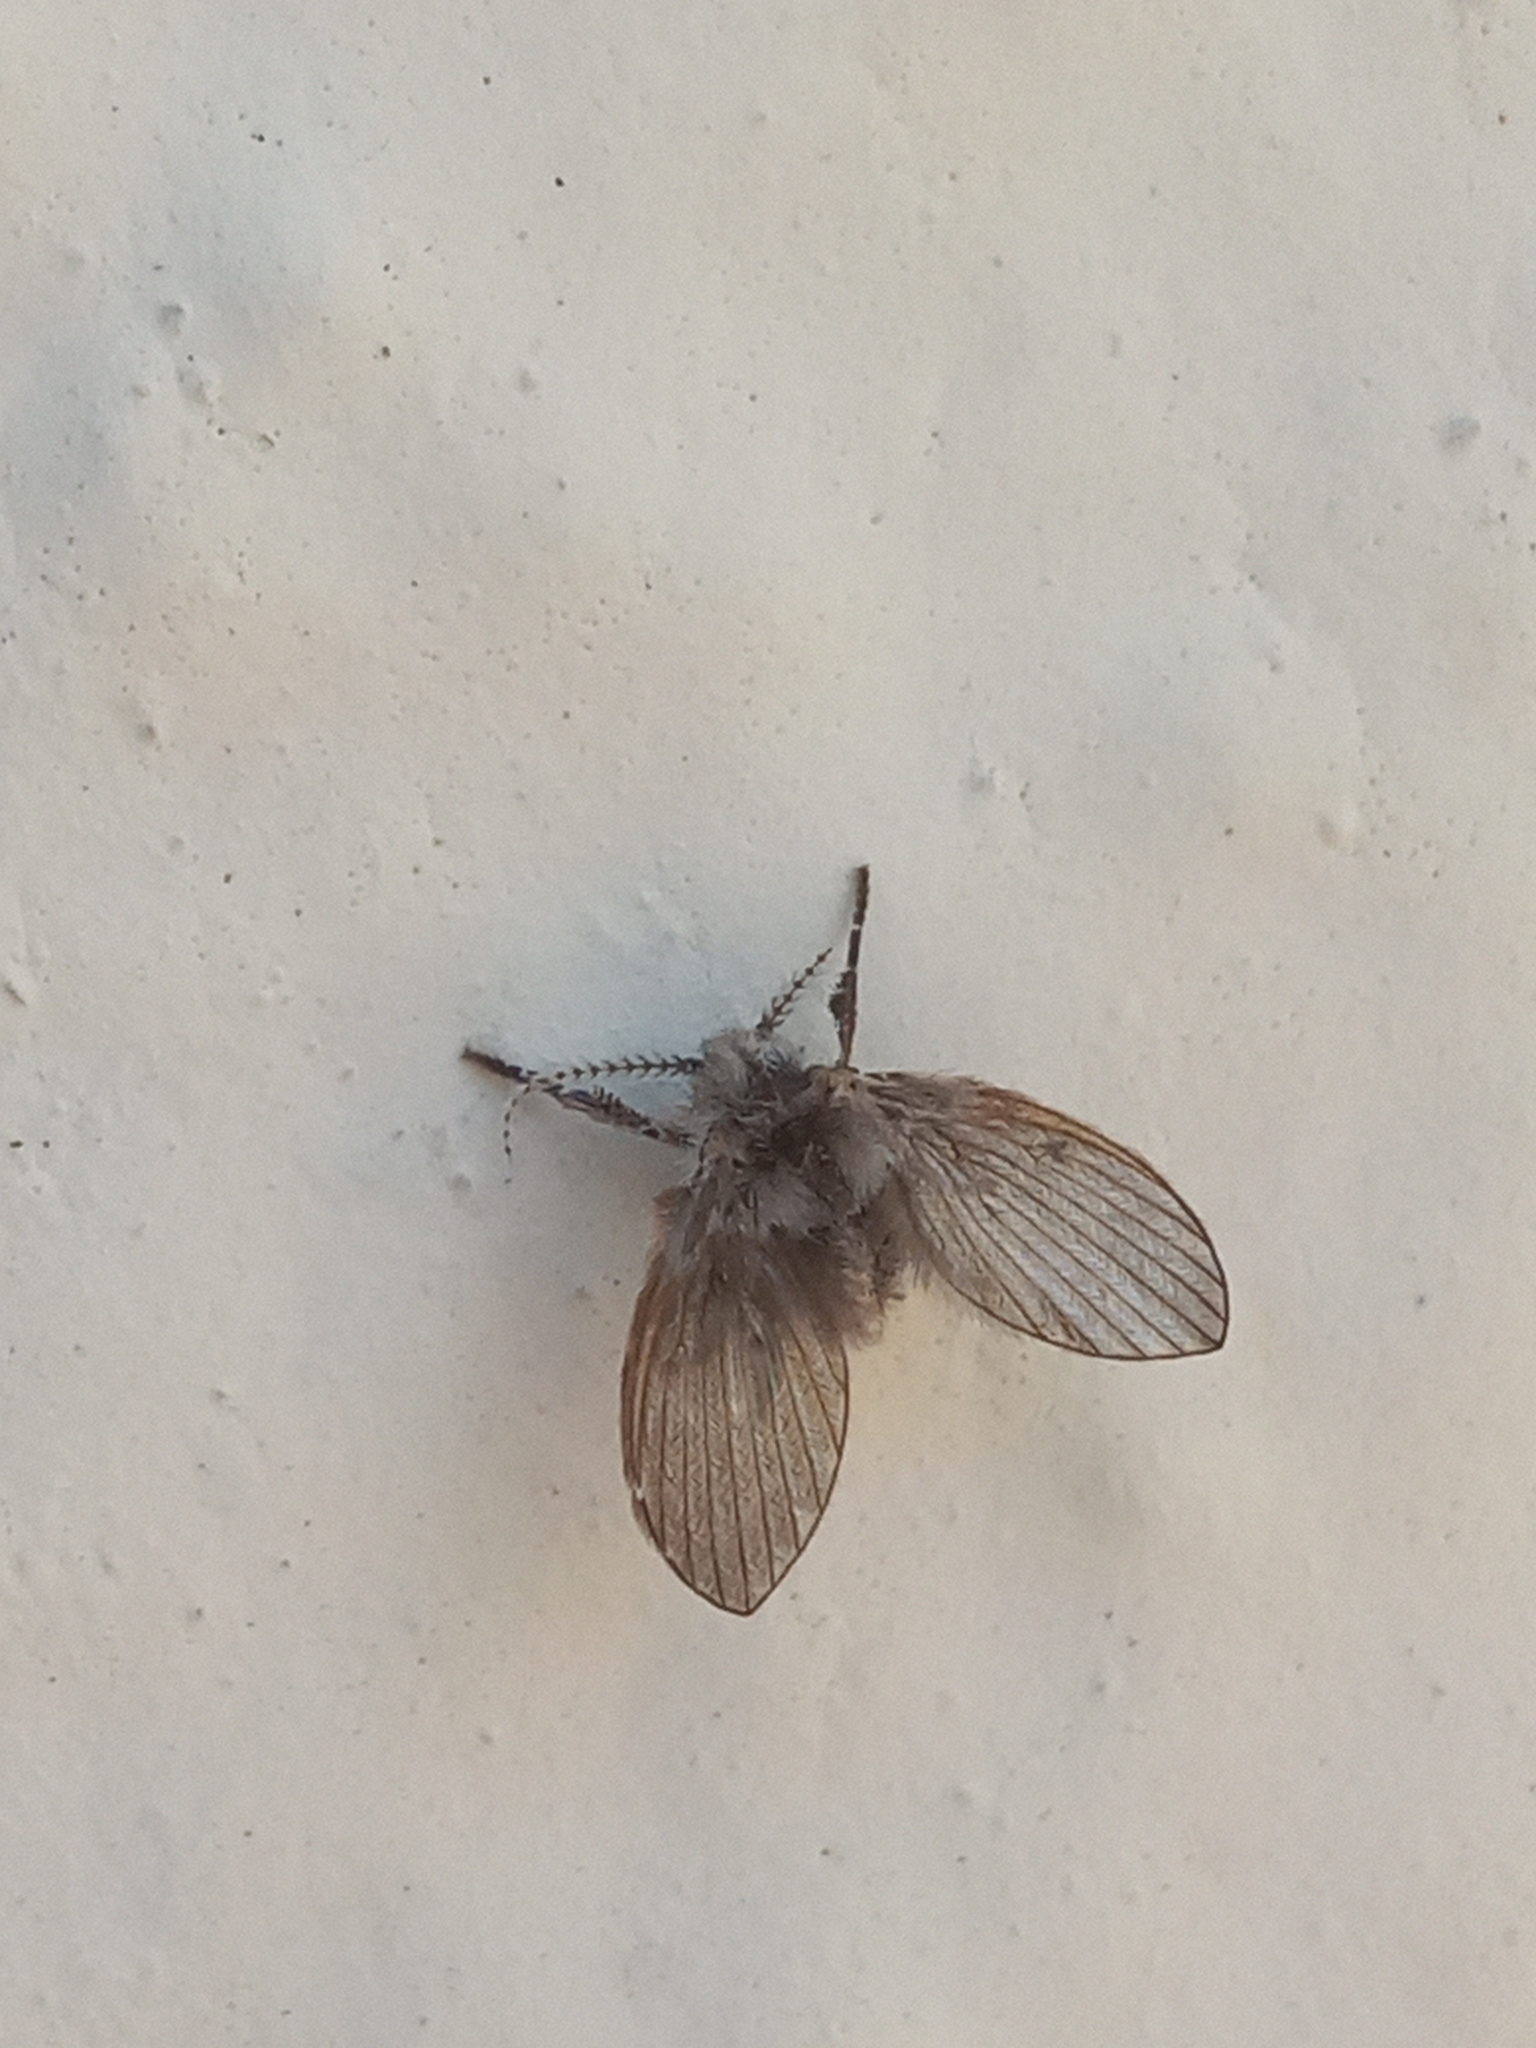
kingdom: Animalia
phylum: Arthropoda
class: Insecta
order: Diptera
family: Psychodidae
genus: Clogmia
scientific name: Clogmia albipunctatus
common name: White-spotted moth fly
